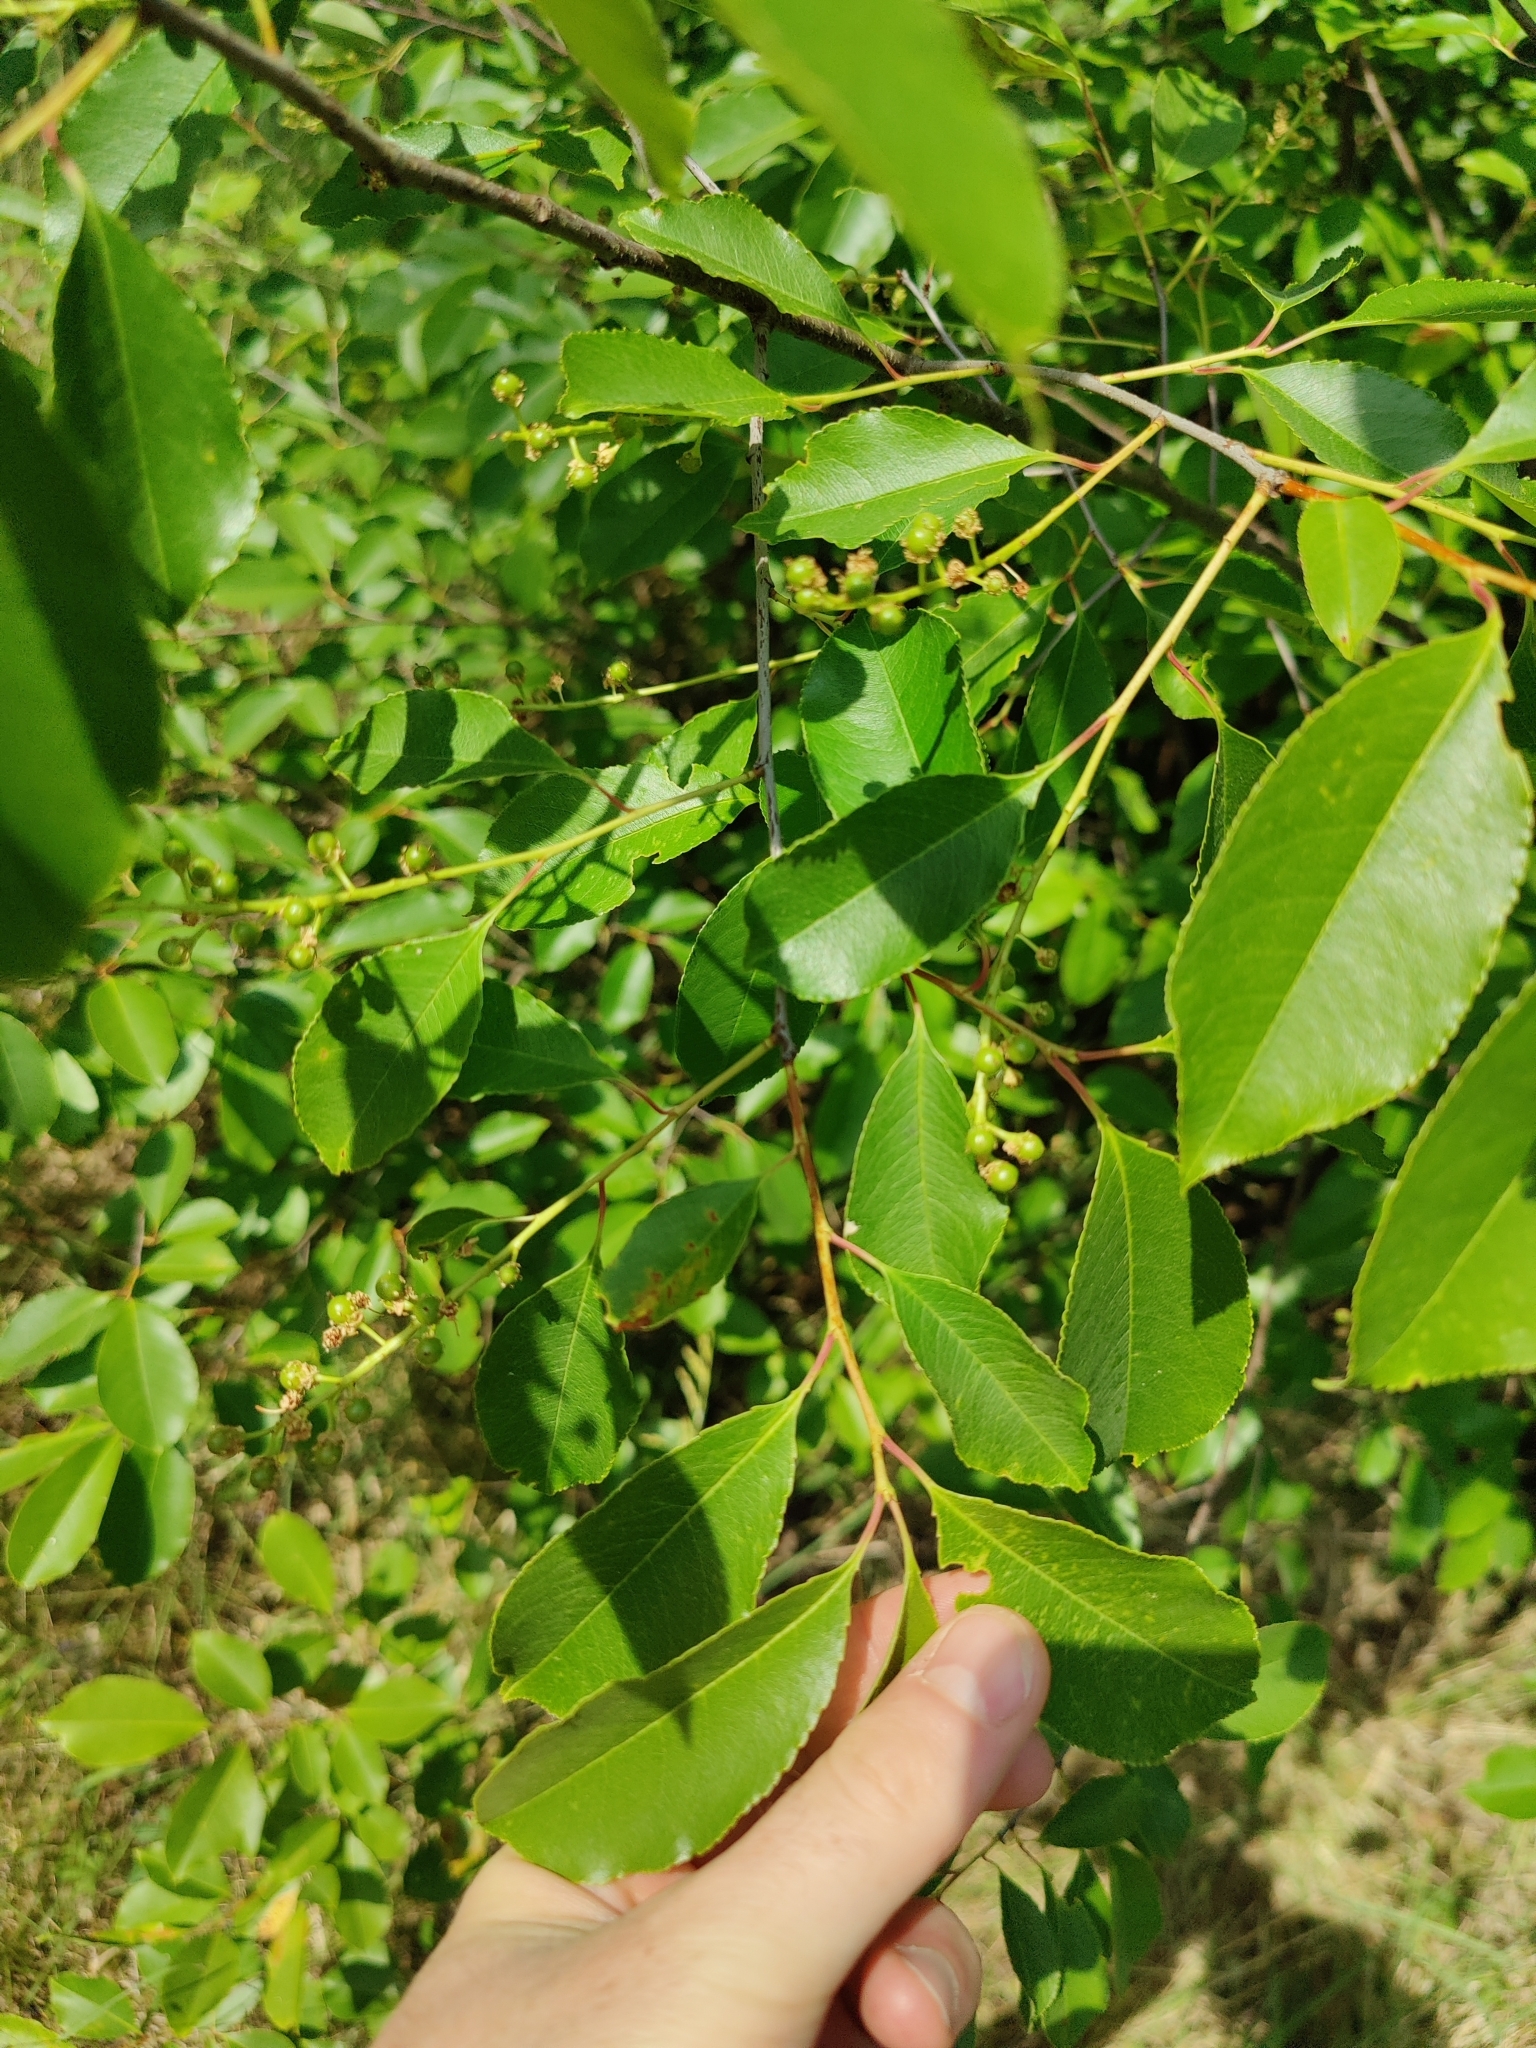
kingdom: Plantae
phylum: Tracheophyta
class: Magnoliopsida
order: Rosales
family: Rosaceae
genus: Prunus
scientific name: Prunus serotina
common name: Black cherry
